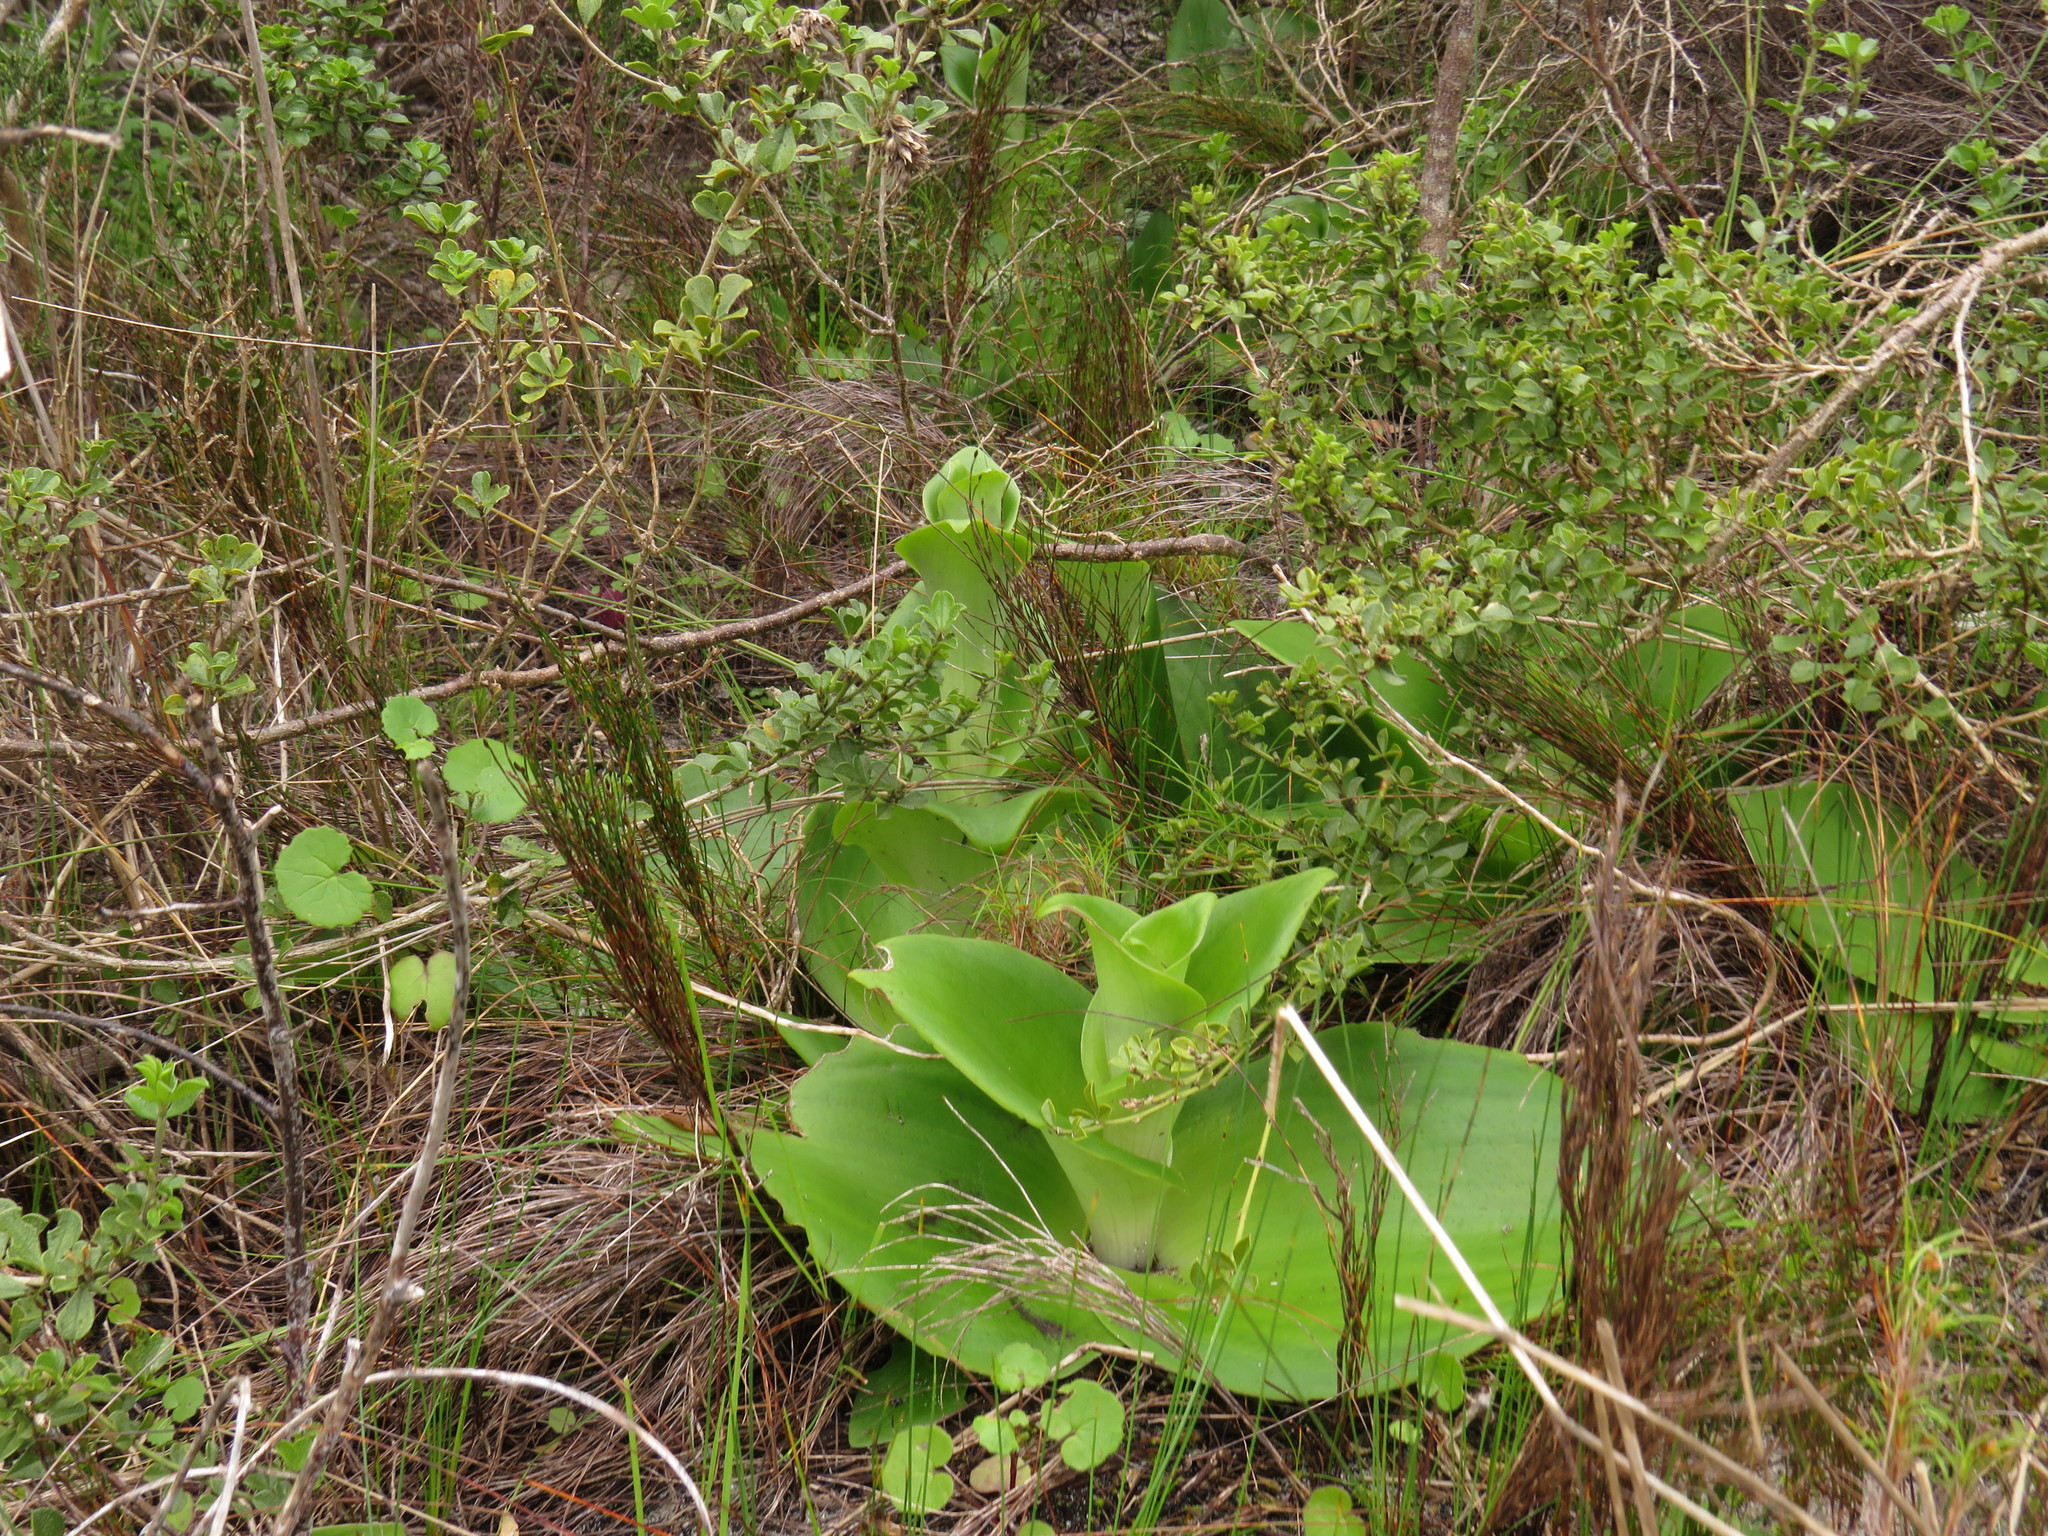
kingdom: Plantae
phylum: Tracheophyta
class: Liliopsida
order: Asparagales
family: Orchidaceae
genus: Satyrium
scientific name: Satyrium carneum
